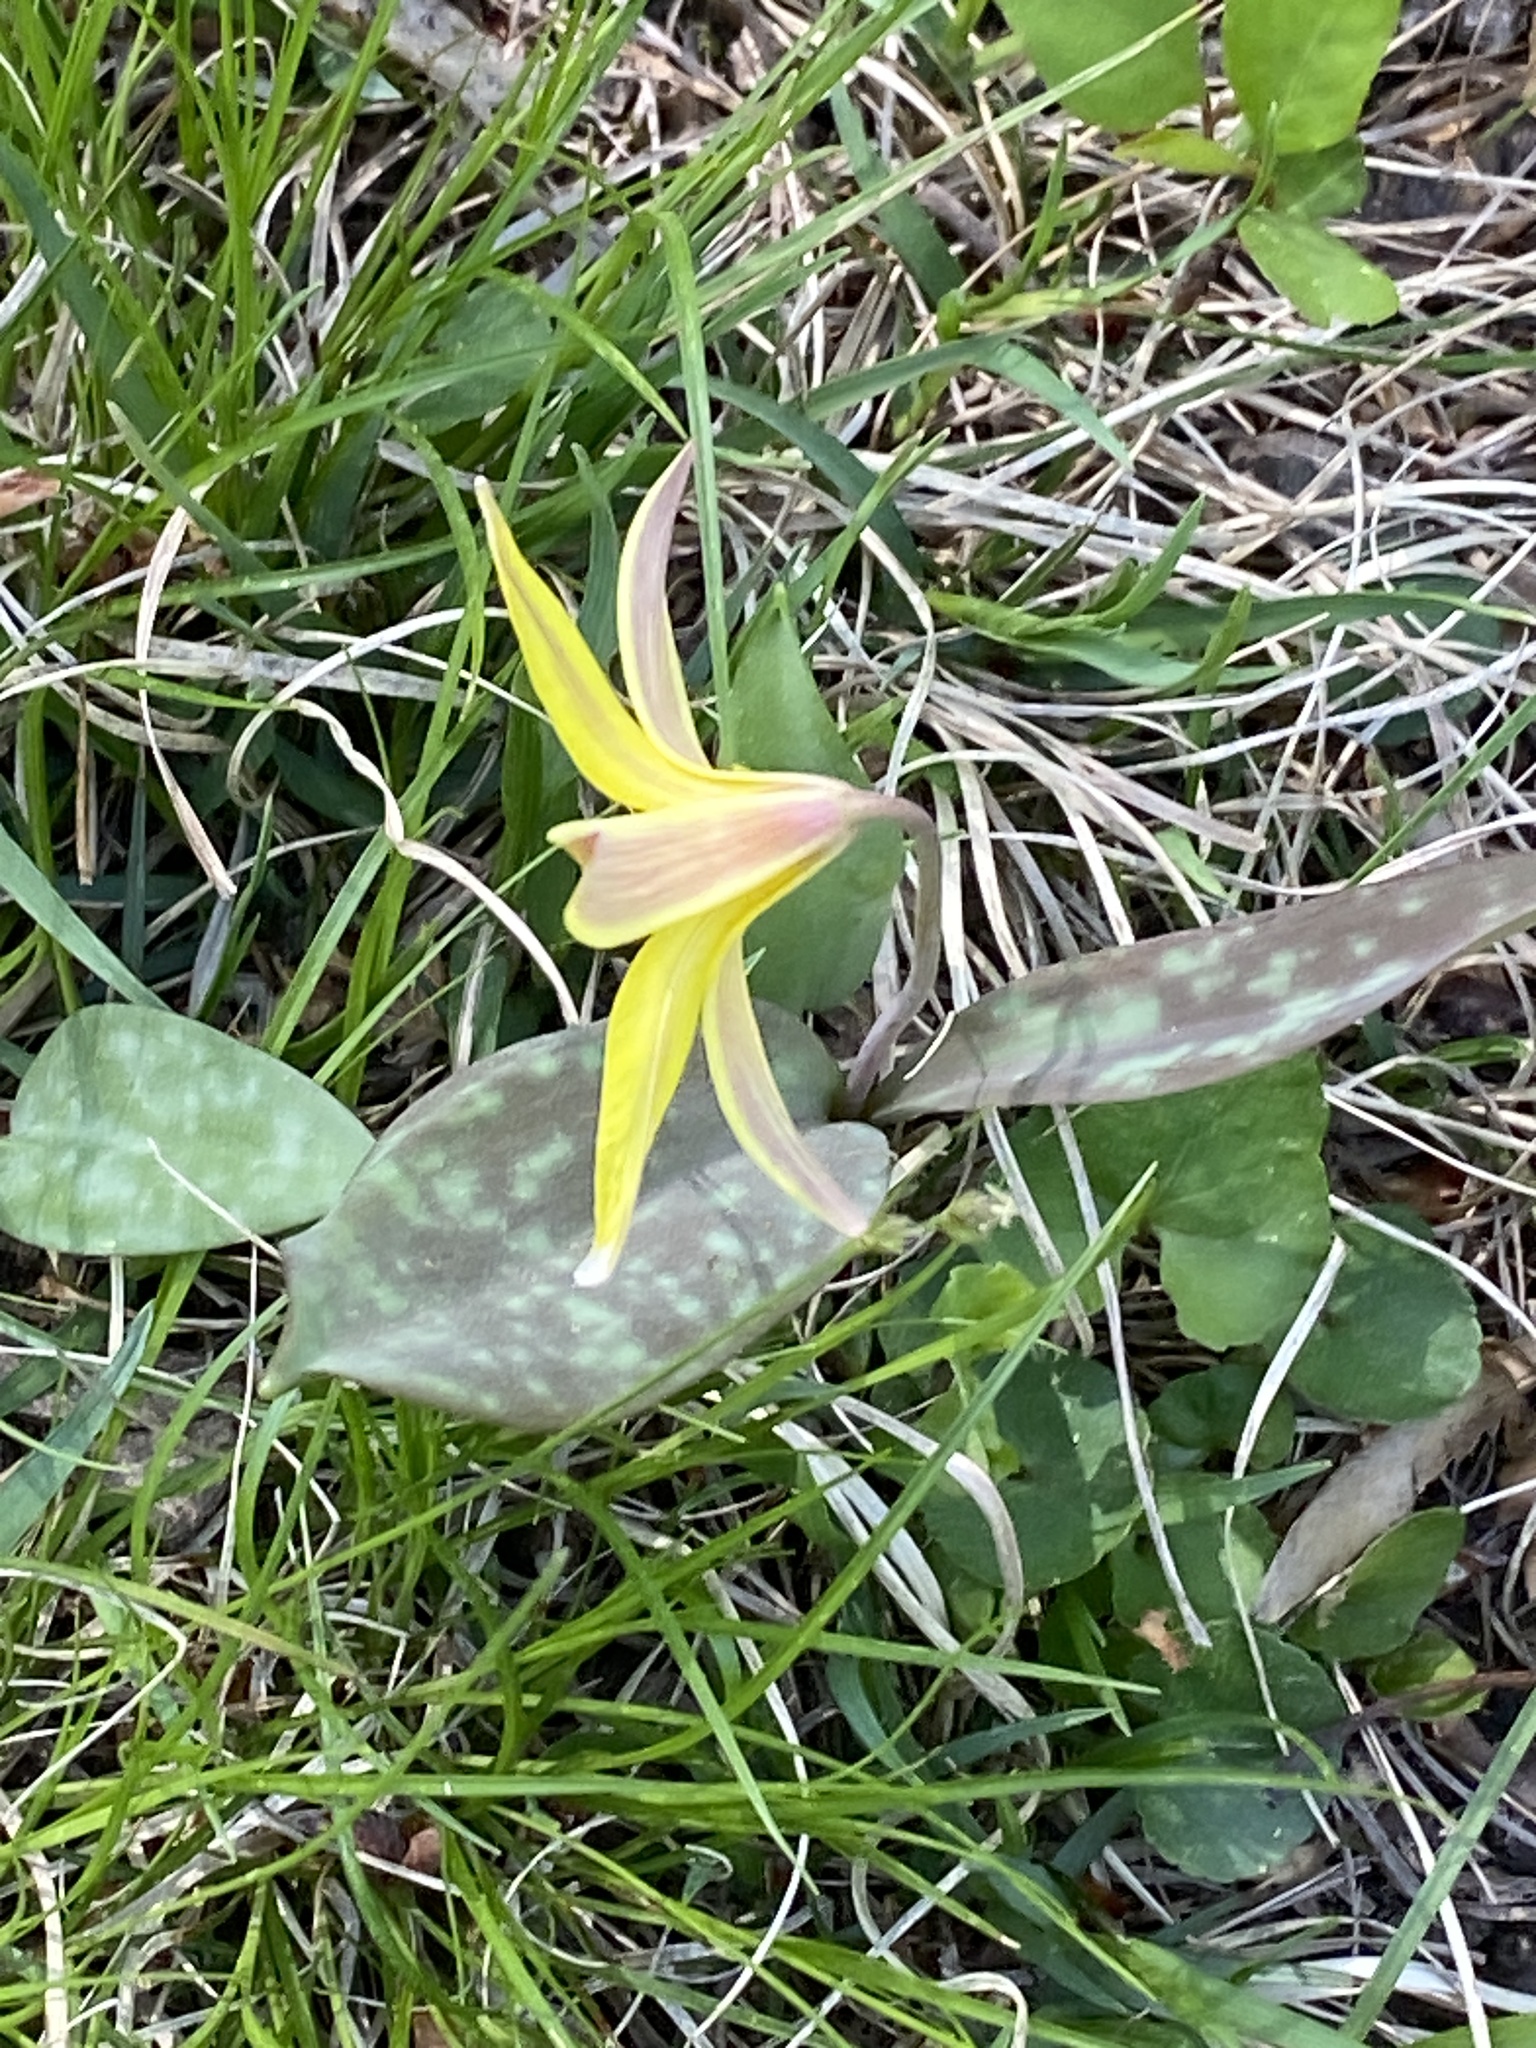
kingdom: Plantae
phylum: Tracheophyta
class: Liliopsida
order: Liliales
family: Liliaceae
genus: Erythronium
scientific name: Erythronium americanum
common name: Yellow adder's-tongue
